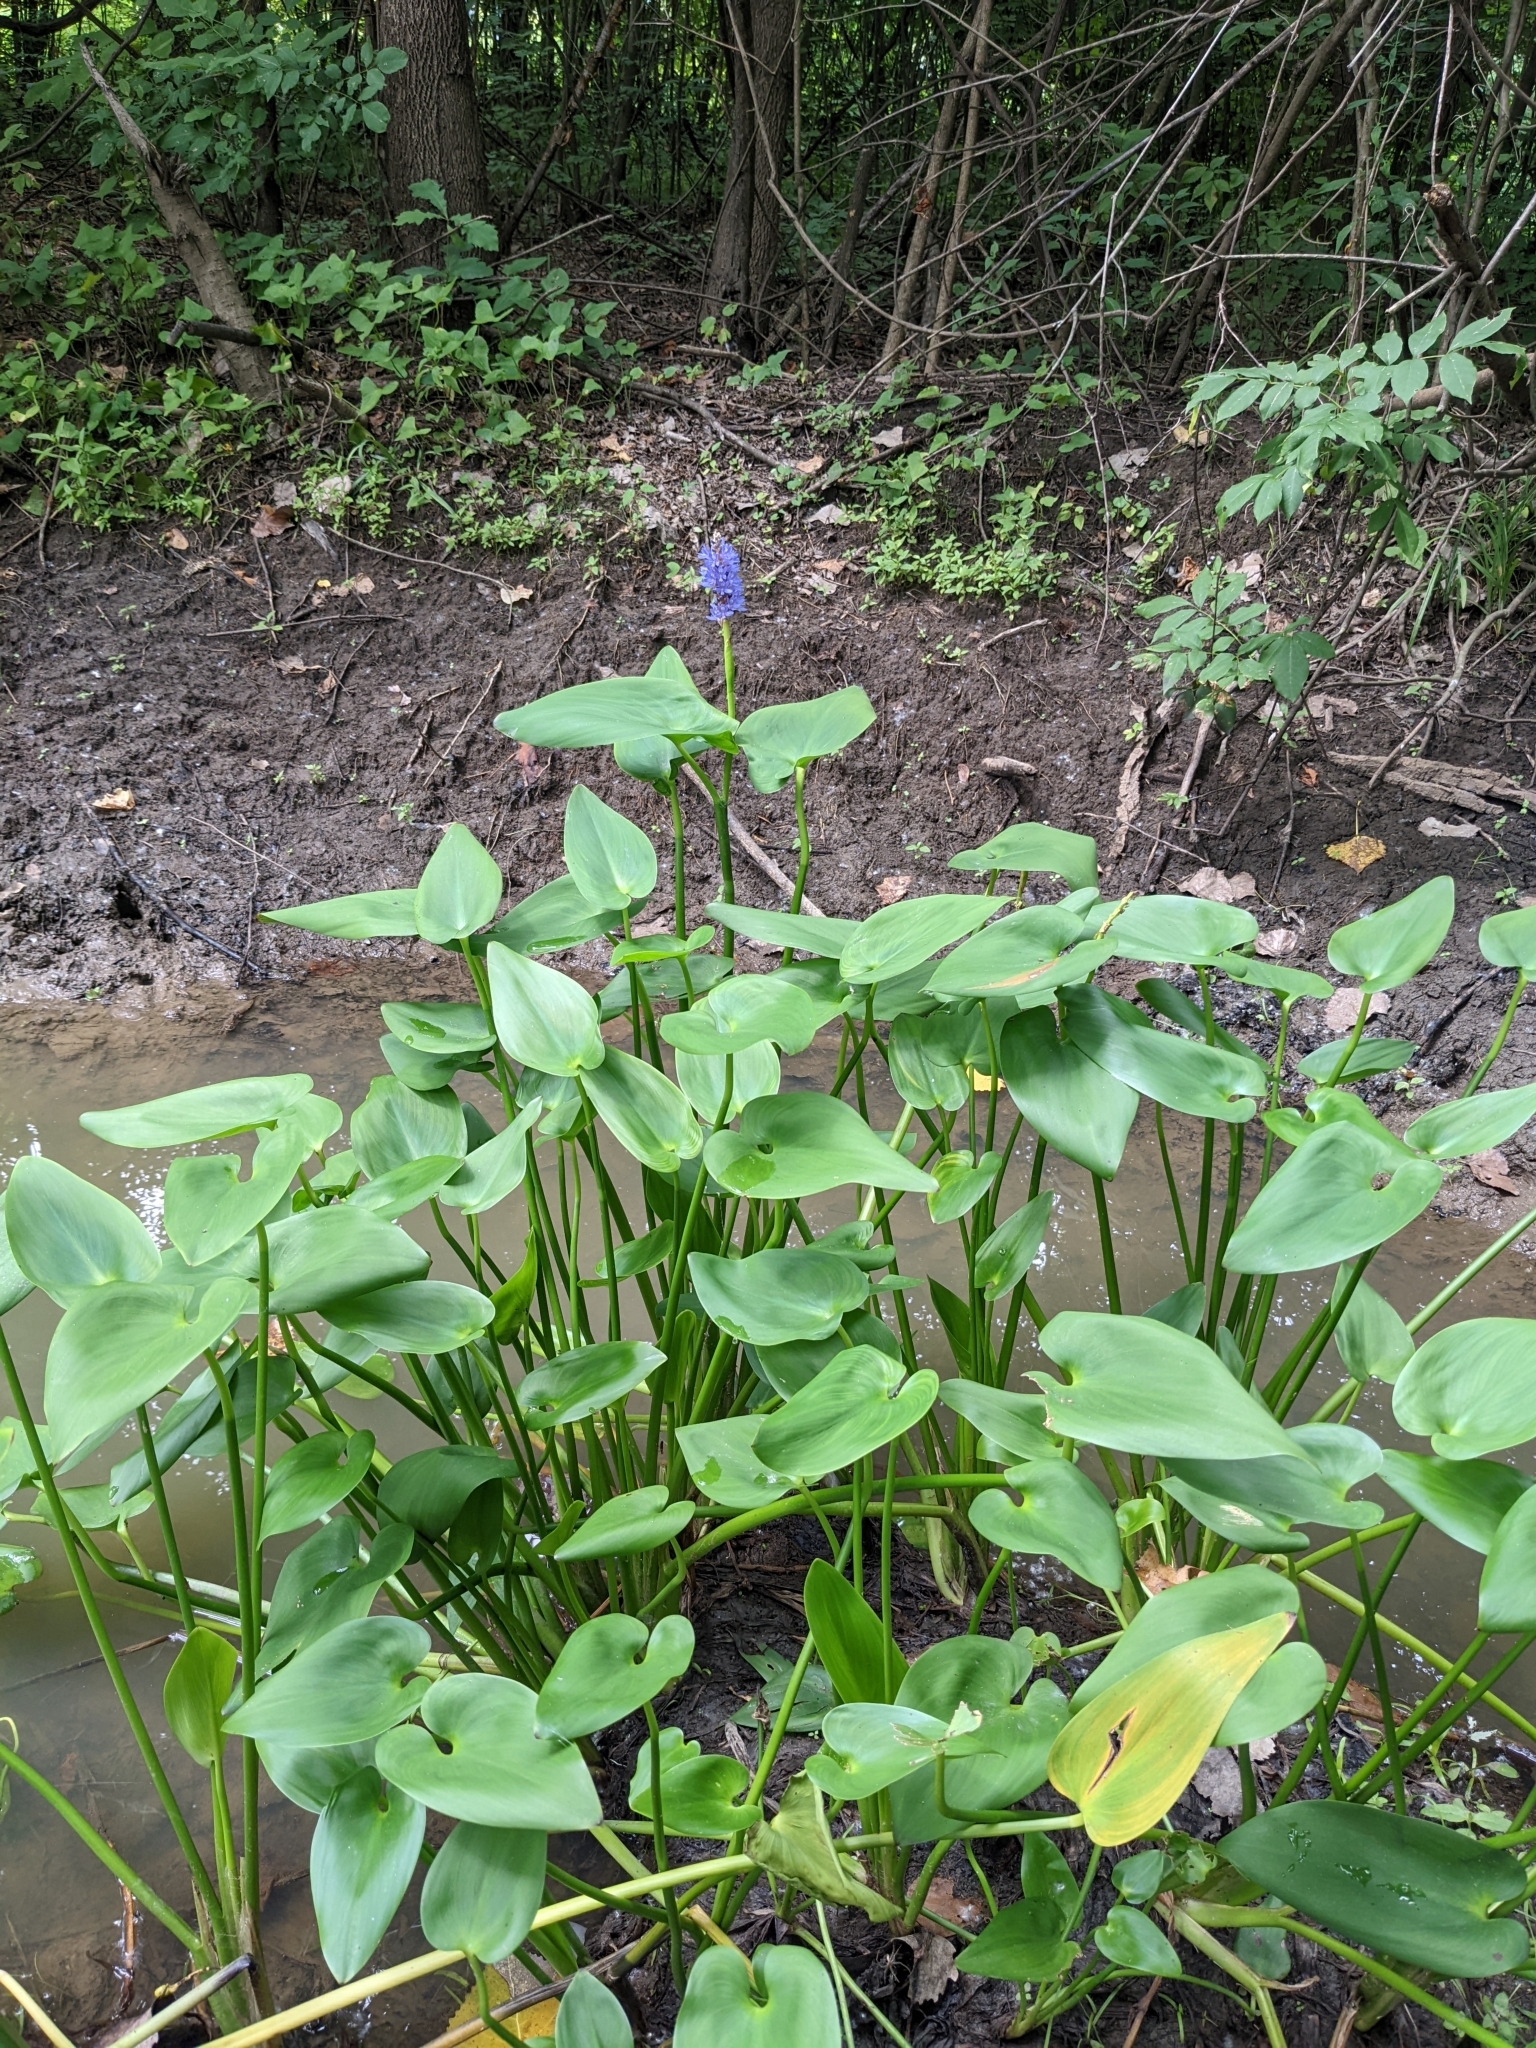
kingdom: Plantae
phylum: Tracheophyta
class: Liliopsida
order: Commelinales
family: Pontederiaceae
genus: Pontederia
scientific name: Pontederia cordata
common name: Pickerelweed
